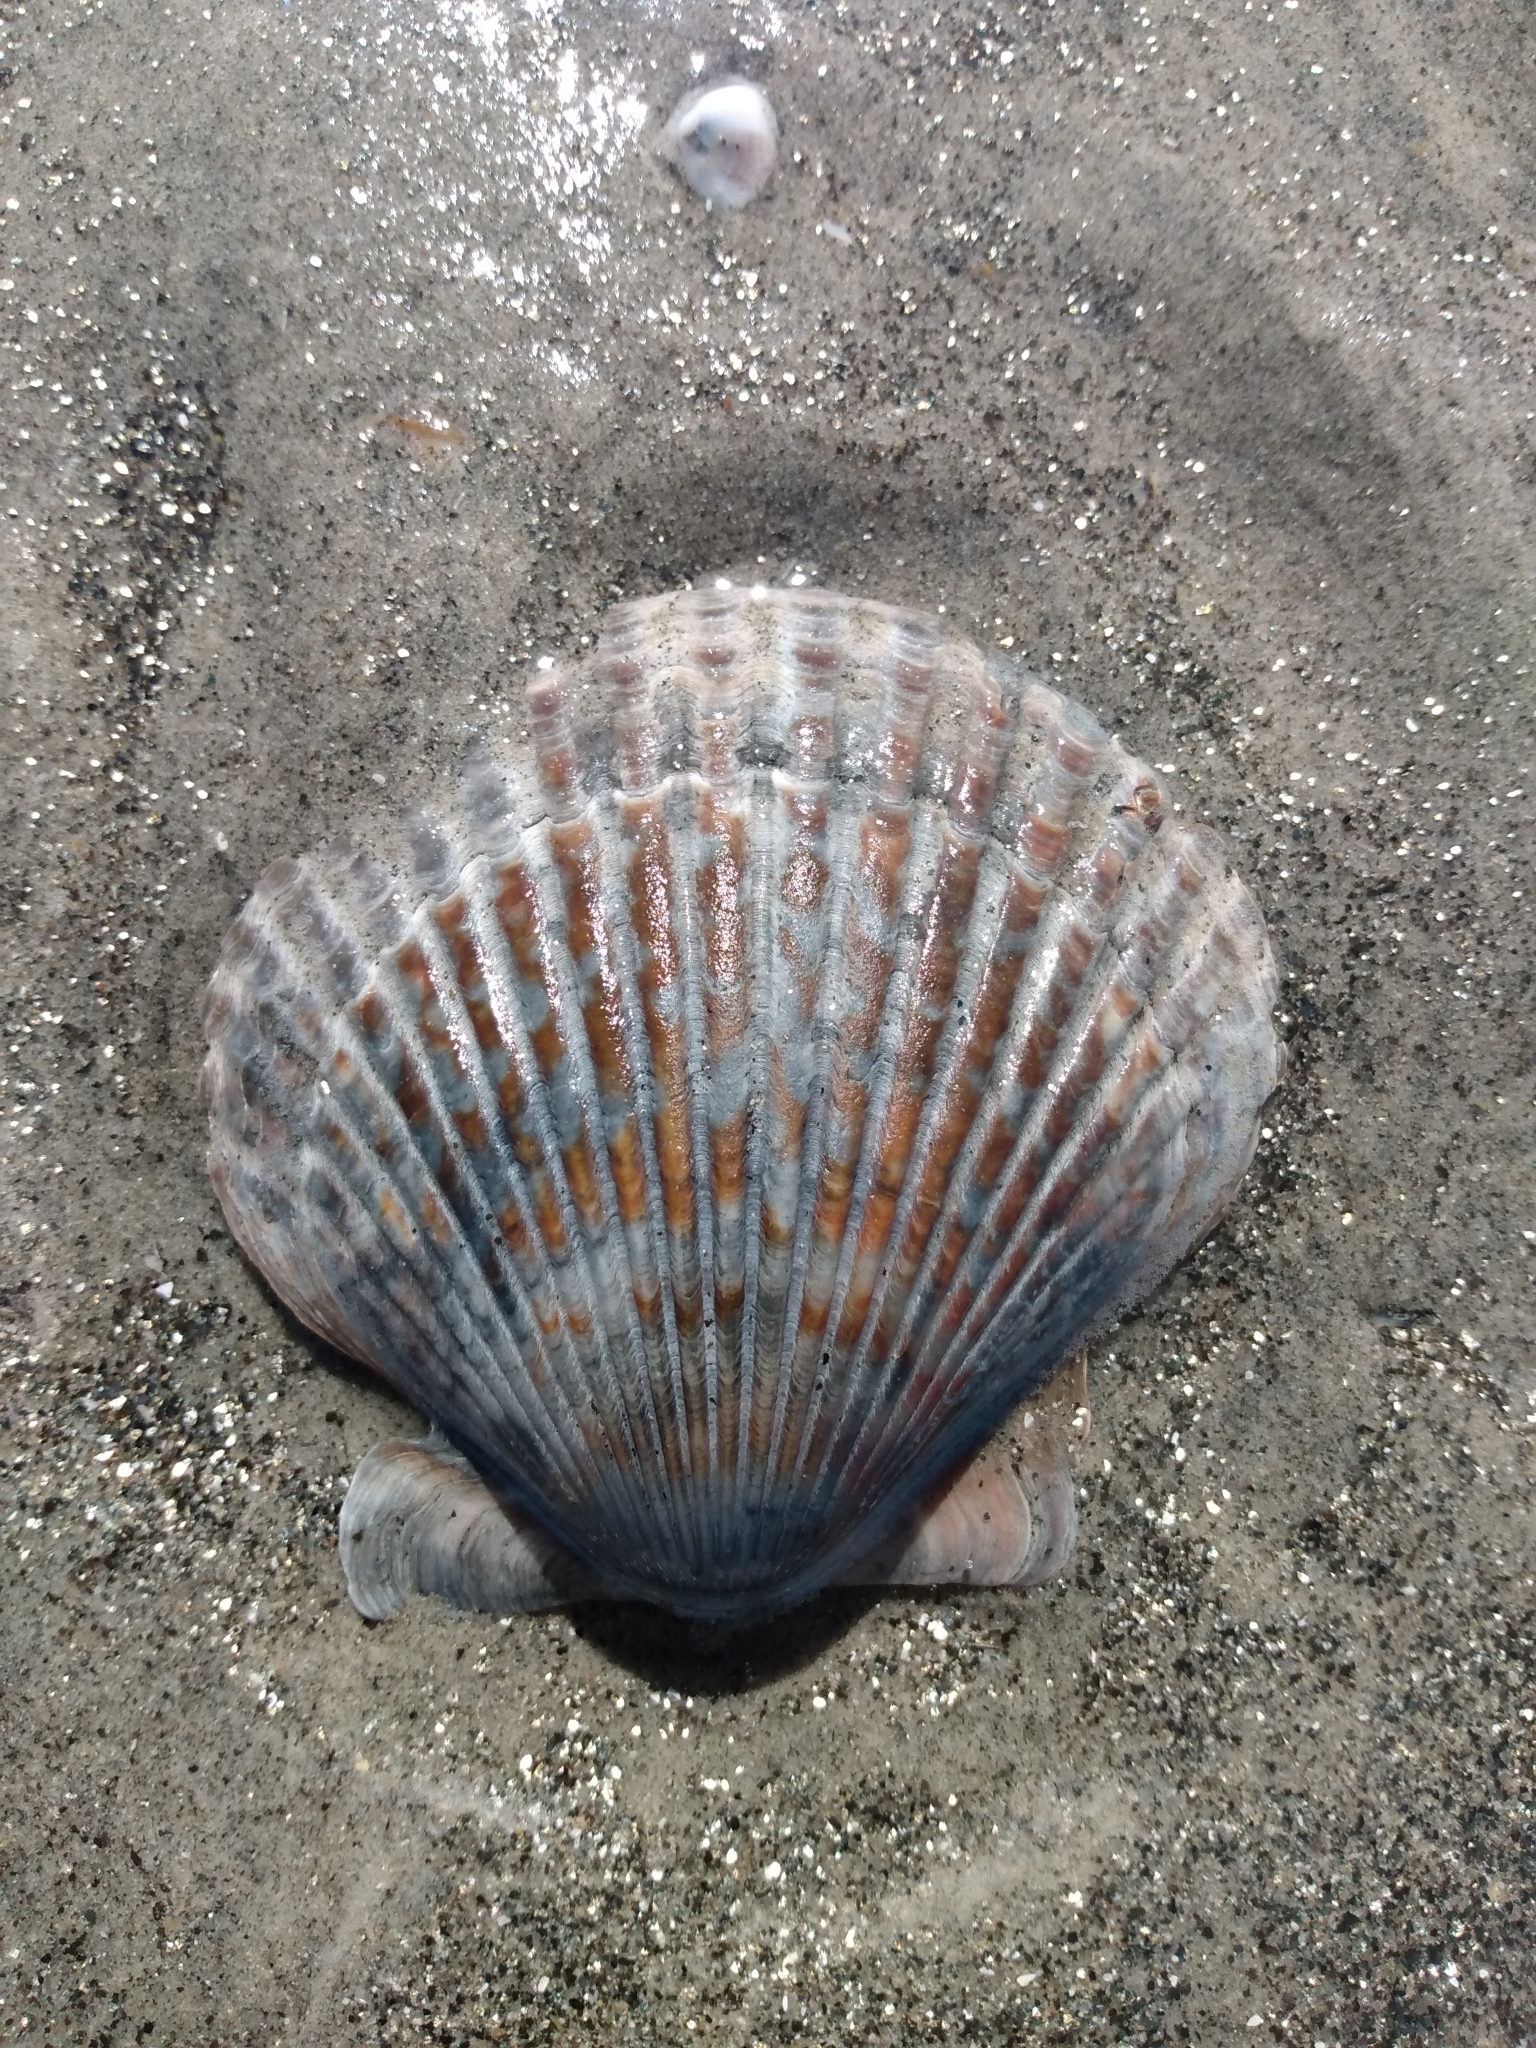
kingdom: Animalia
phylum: Mollusca
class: Bivalvia
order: Pectinida
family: Pectinidae
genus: Argopecten
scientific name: Argopecten ventricosus
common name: Catarina scallop
